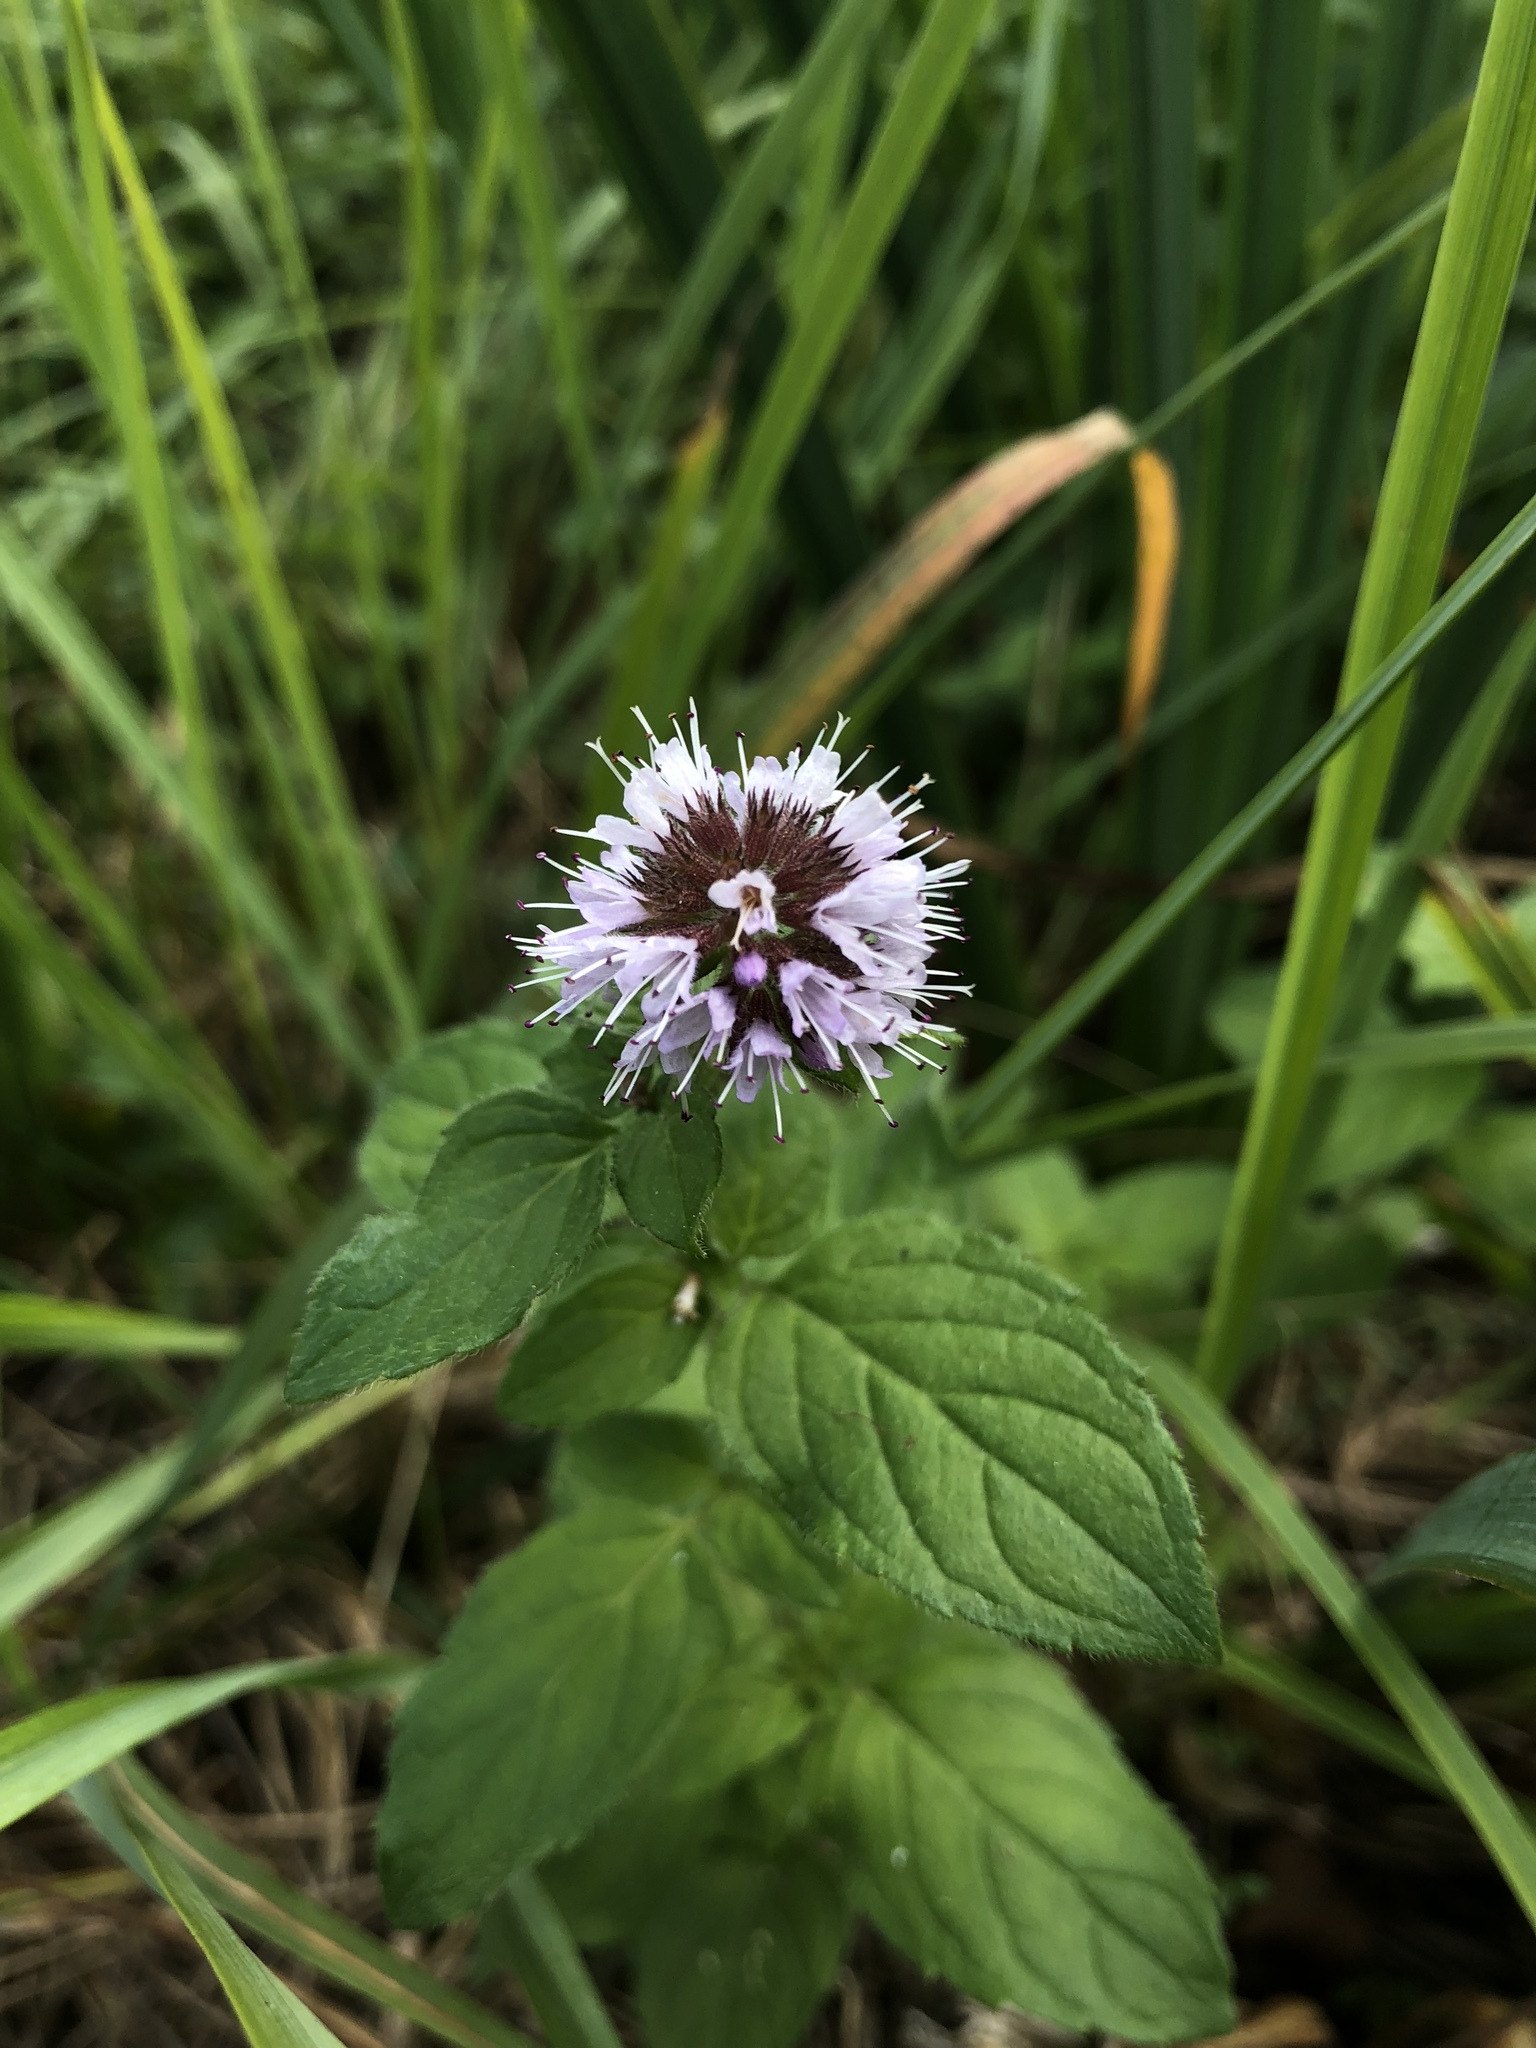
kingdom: Plantae
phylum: Tracheophyta
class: Magnoliopsida
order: Lamiales
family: Lamiaceae
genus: Mentha
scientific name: Mentha aquatica
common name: Water mint
